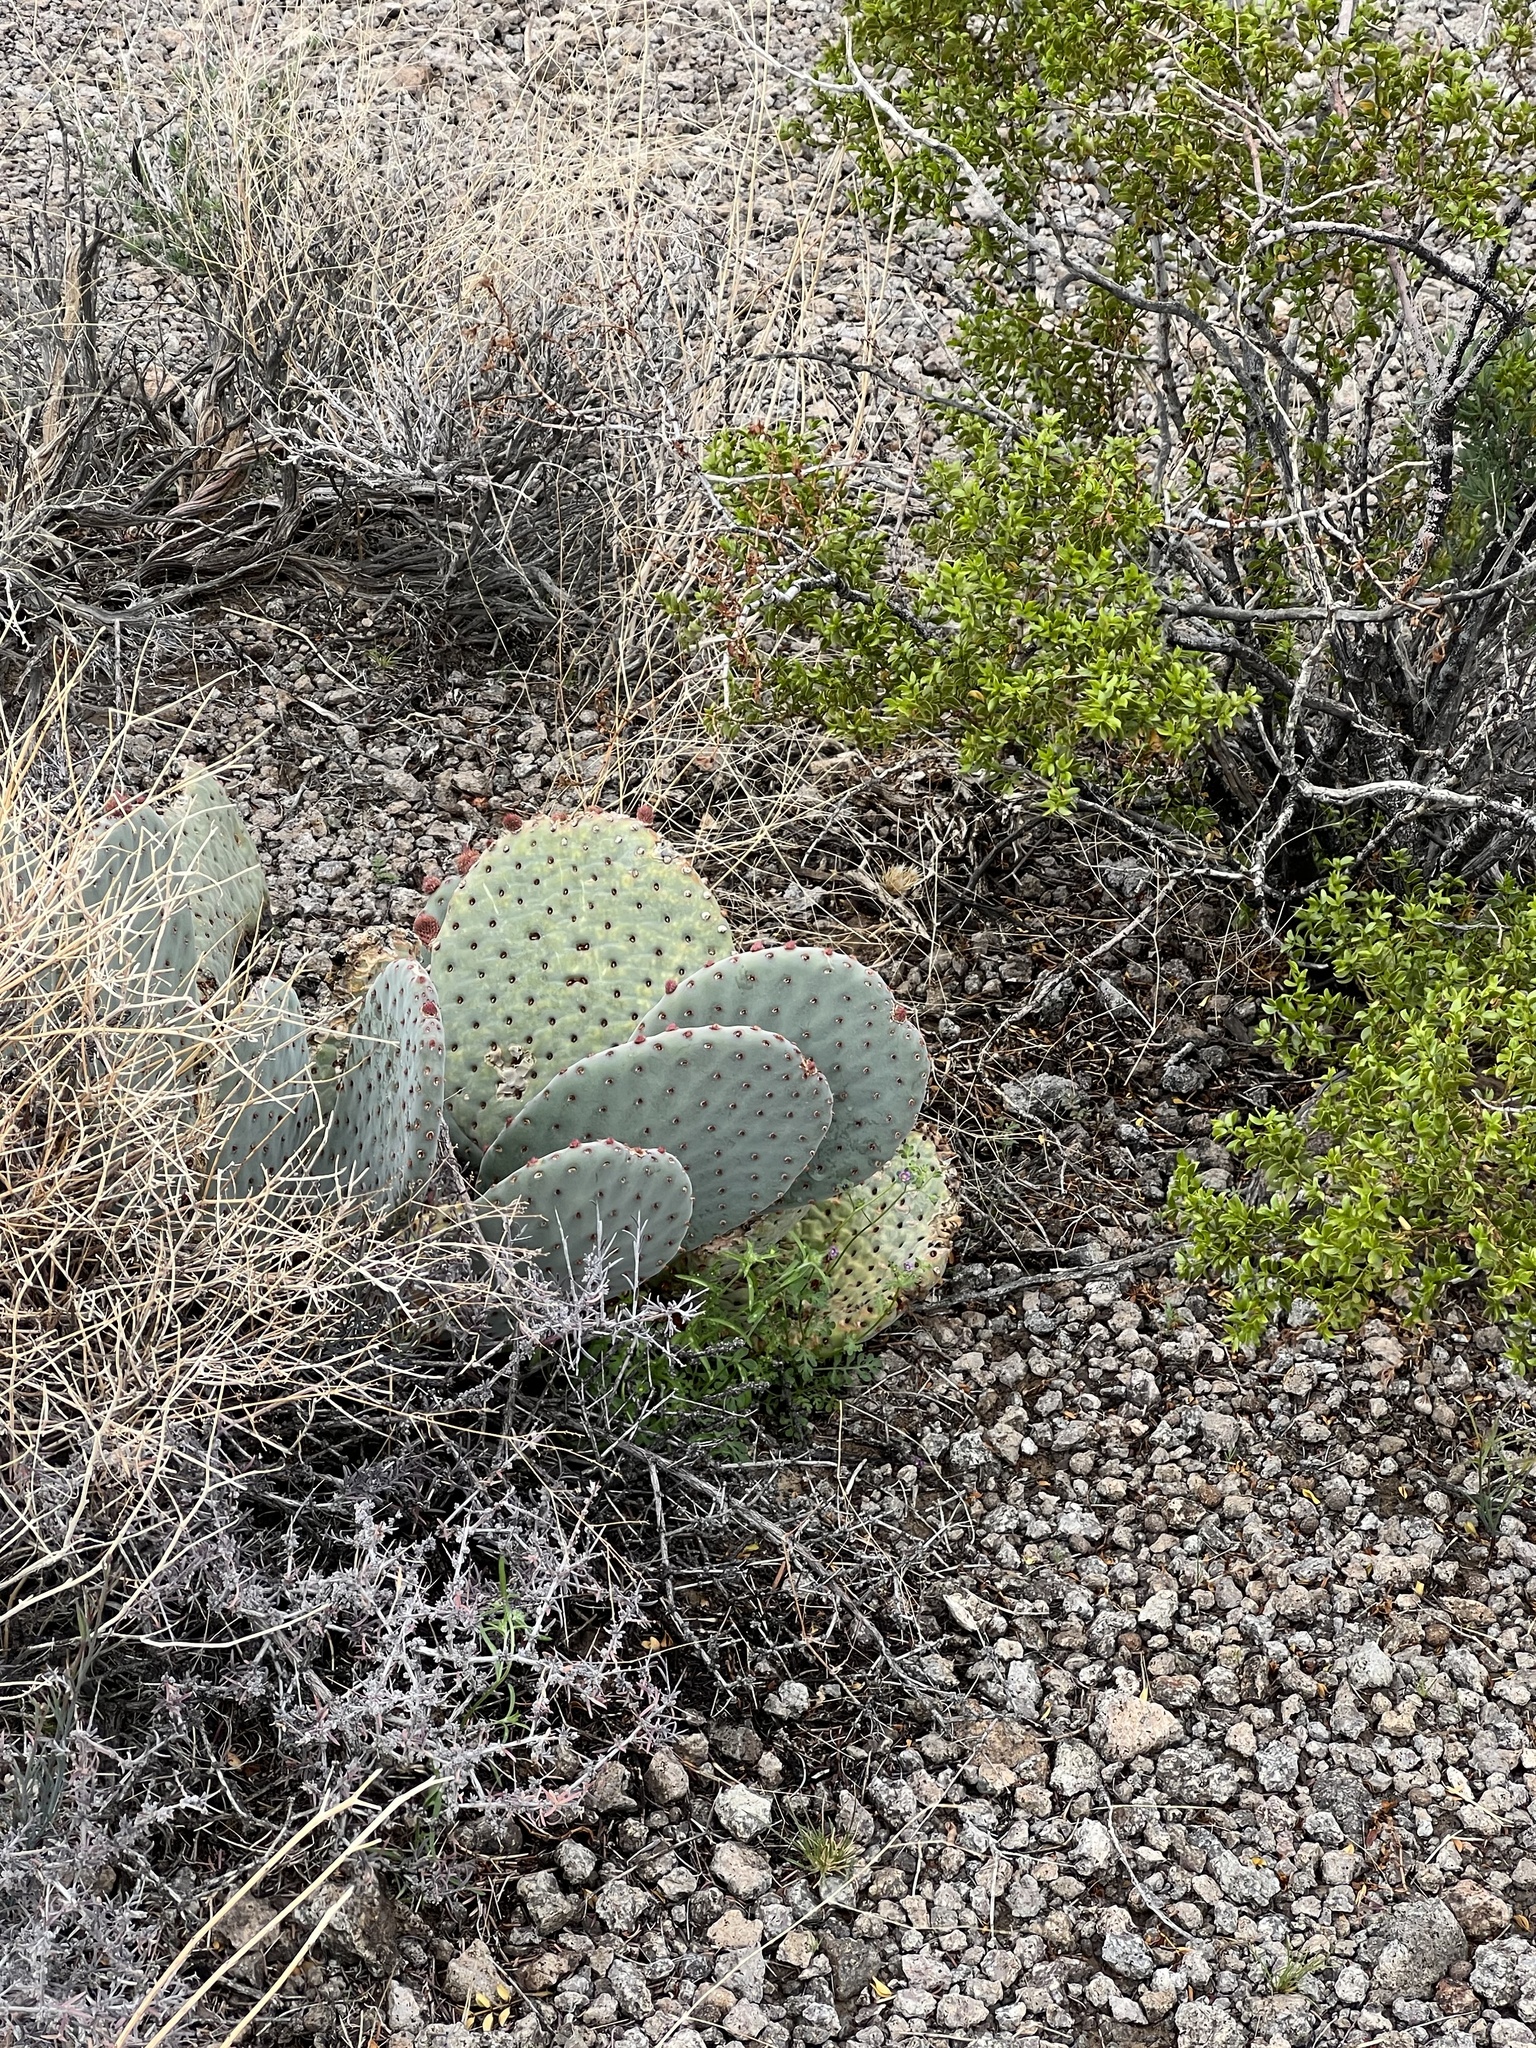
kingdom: Plantae
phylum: Tracheophyta
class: Magnoliopsida
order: Caryophyllales
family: Cactaceae
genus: Opuntia
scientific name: Opuntia basilaris
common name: Beavertail prickly-pear
